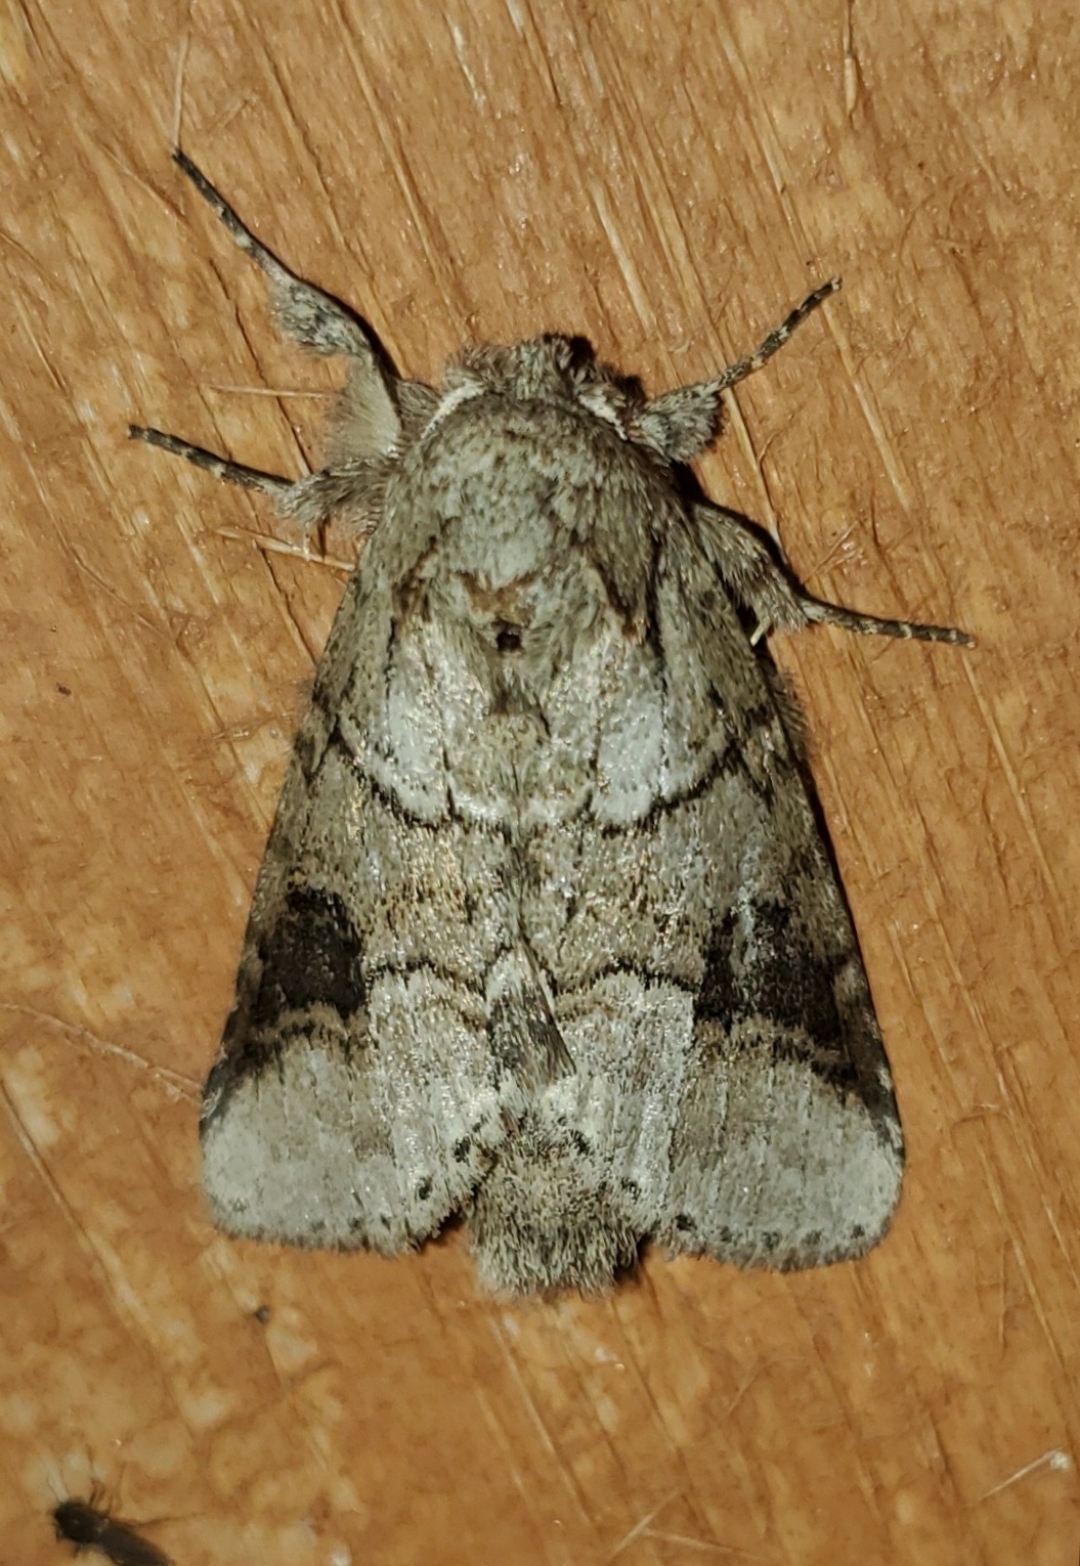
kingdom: Animalia
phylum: Arthropoda
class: Insecta
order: Lepidoptera
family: Notodontidae
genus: Lochmaeus
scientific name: Lochmaeus bilineata
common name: Double-lined prominent
